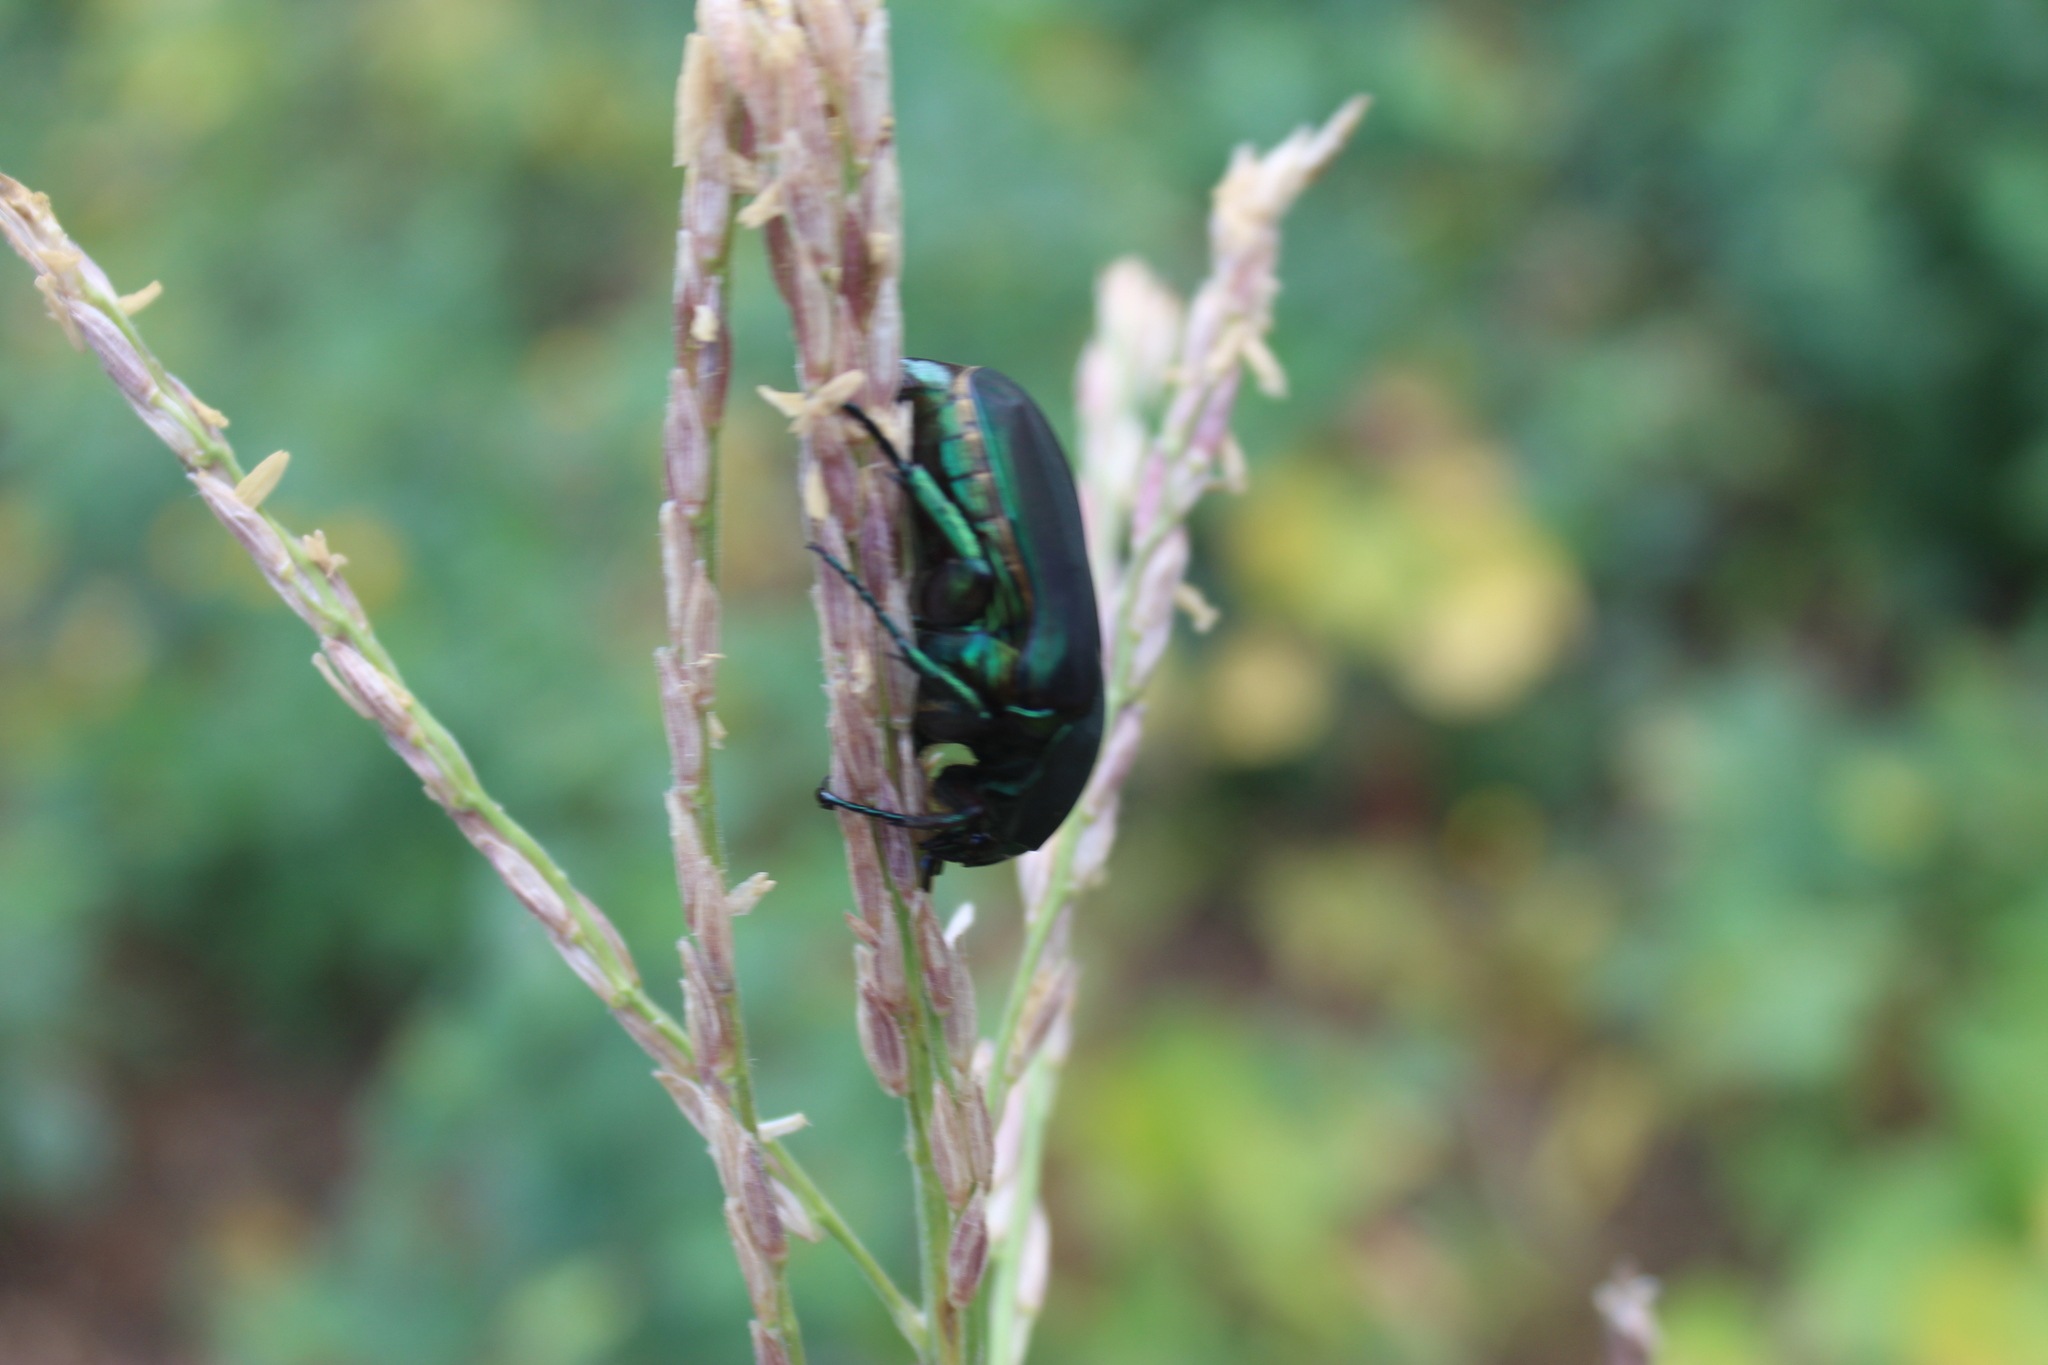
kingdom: Animalia
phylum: Arthropoda
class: Insecta
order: Coleoptera
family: Scarabaeidae
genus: Cotinis
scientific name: Cotinis mutabilis
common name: Figeater beetle
